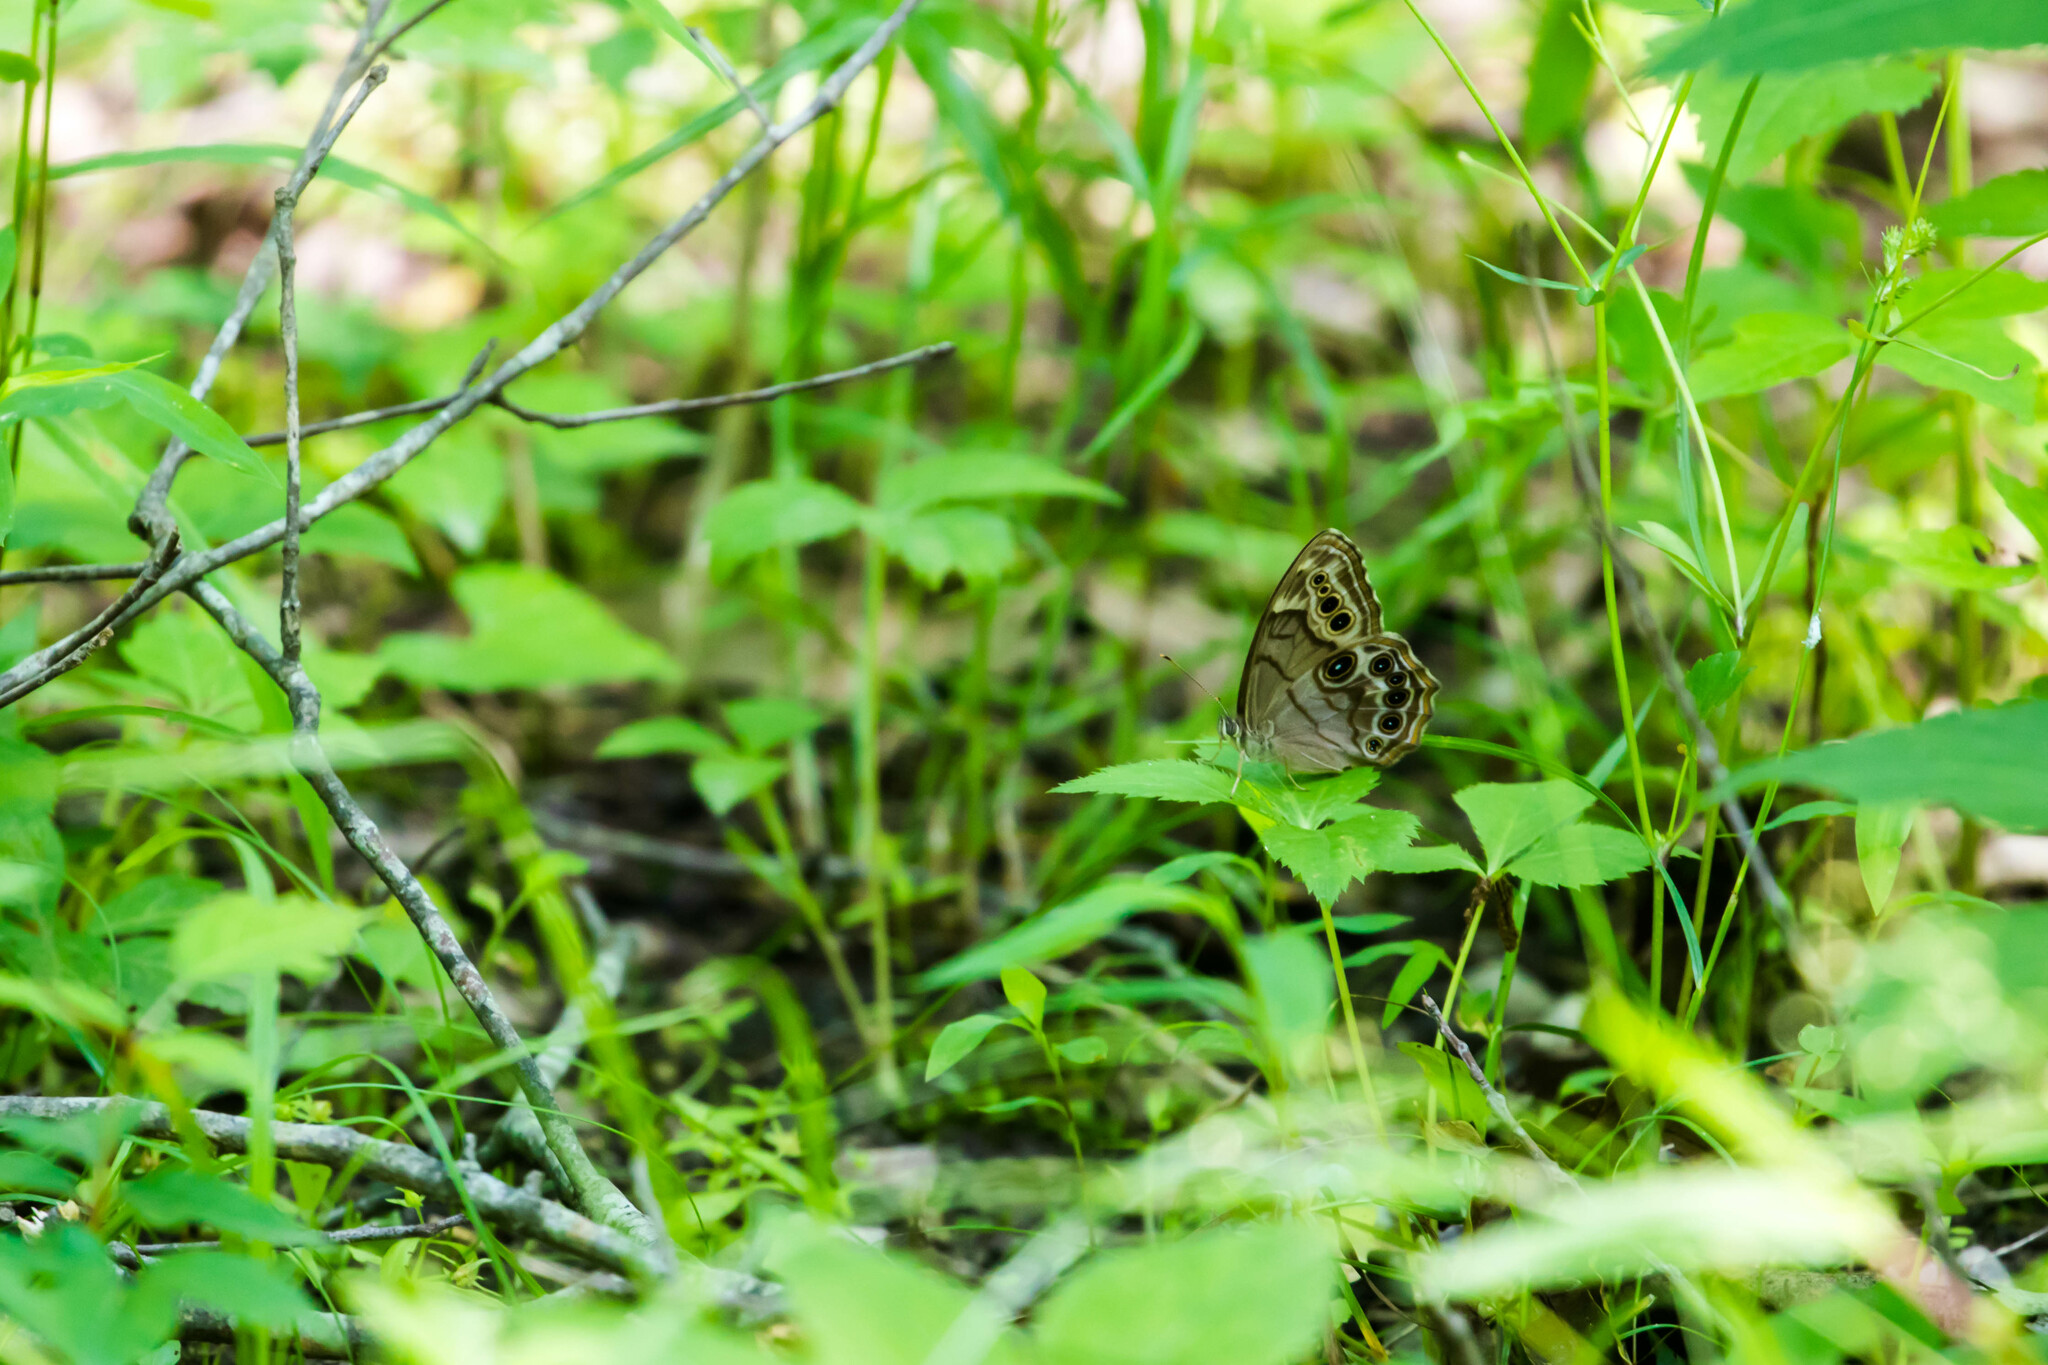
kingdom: Animalia
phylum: Arthropoda
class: Insecta
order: Lepidoptera
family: Nymphalidae
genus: Lethe
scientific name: Lethe anthedon
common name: Northern pearly-eye
